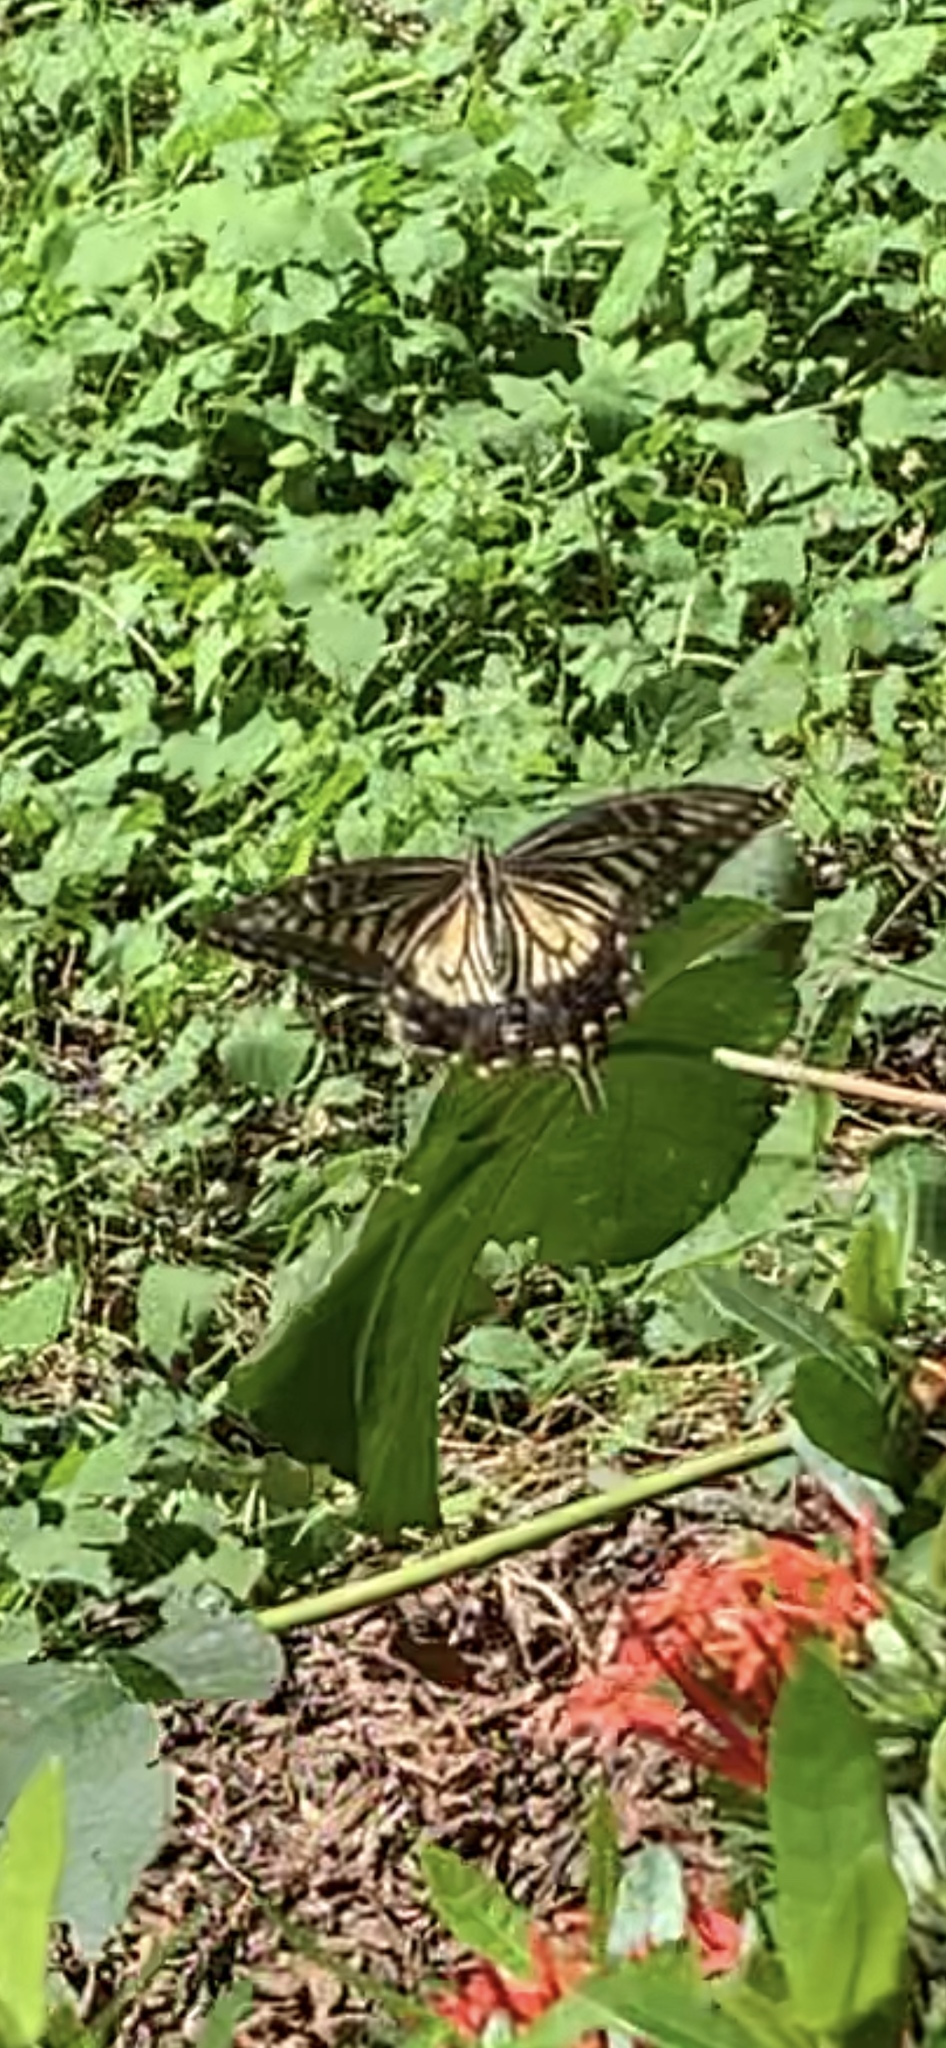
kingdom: Animalia
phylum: Arthropoda
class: Insecta
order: Lepidoptera
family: Papilionidae
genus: Papilio
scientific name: Papilio xuthus
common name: Asian swallowtail
